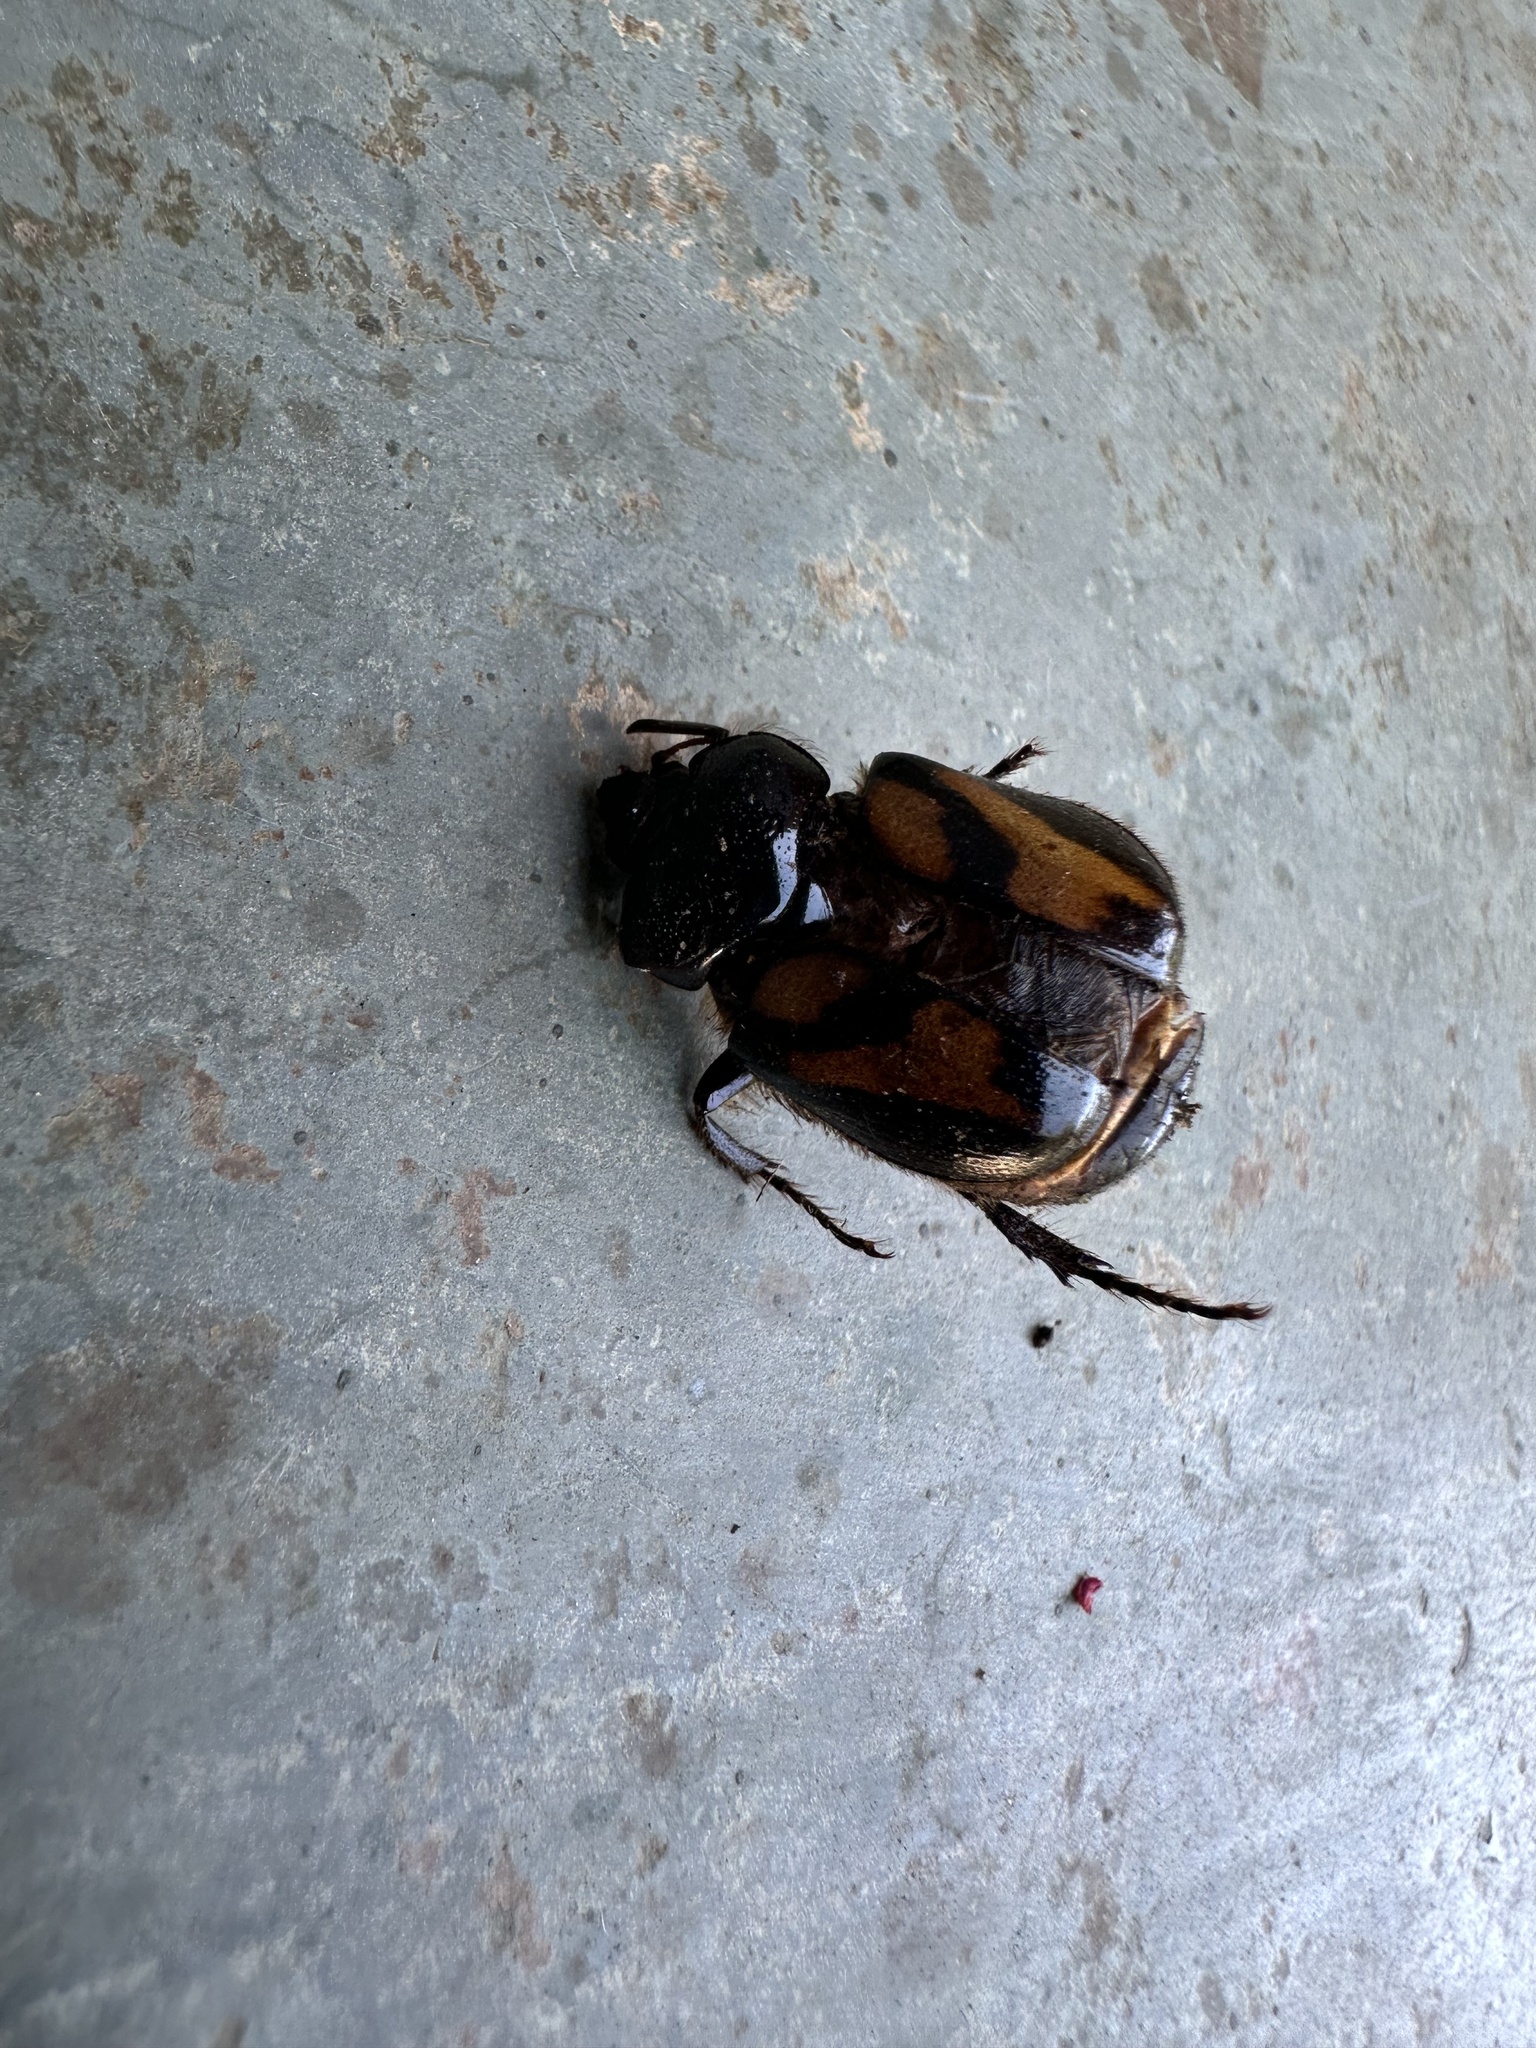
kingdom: Animalia
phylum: Arthropoda
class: Insecta
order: Coleoptera
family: Scarabaeidae
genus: Oryctomorphus
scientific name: Oryctomorphus bimaculatus
